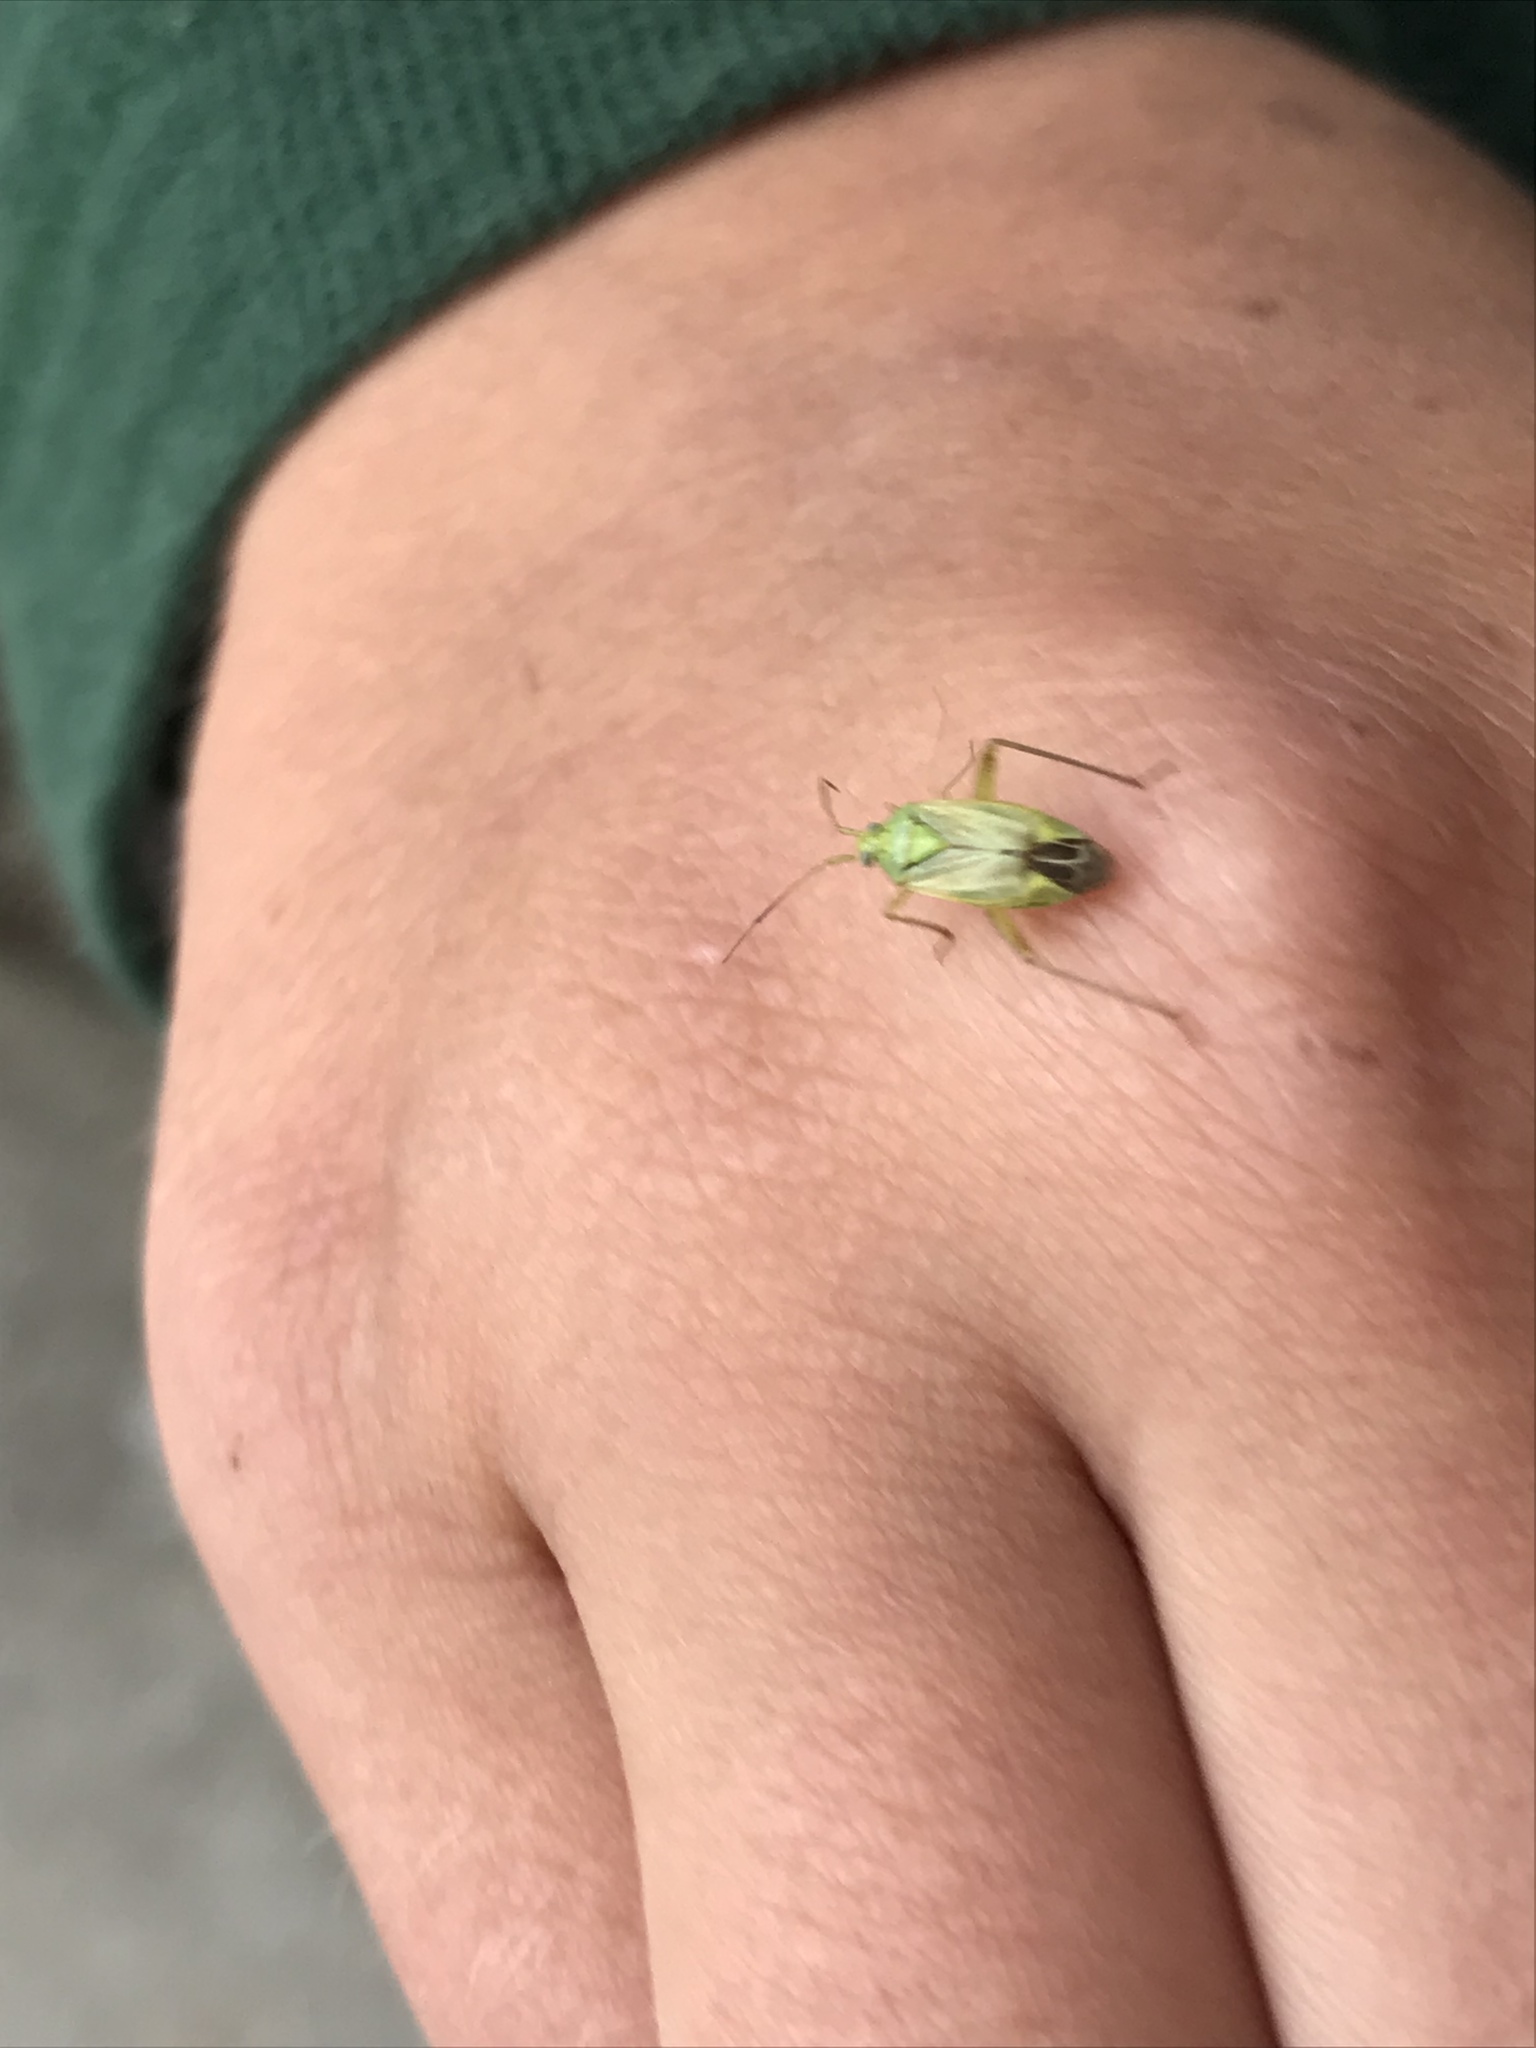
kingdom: Animalia
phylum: Arthropoda
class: Insecta
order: Hemiptera
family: Miridae
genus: Closterotomus
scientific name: Closterotomus norvegicus
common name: Plant bug
